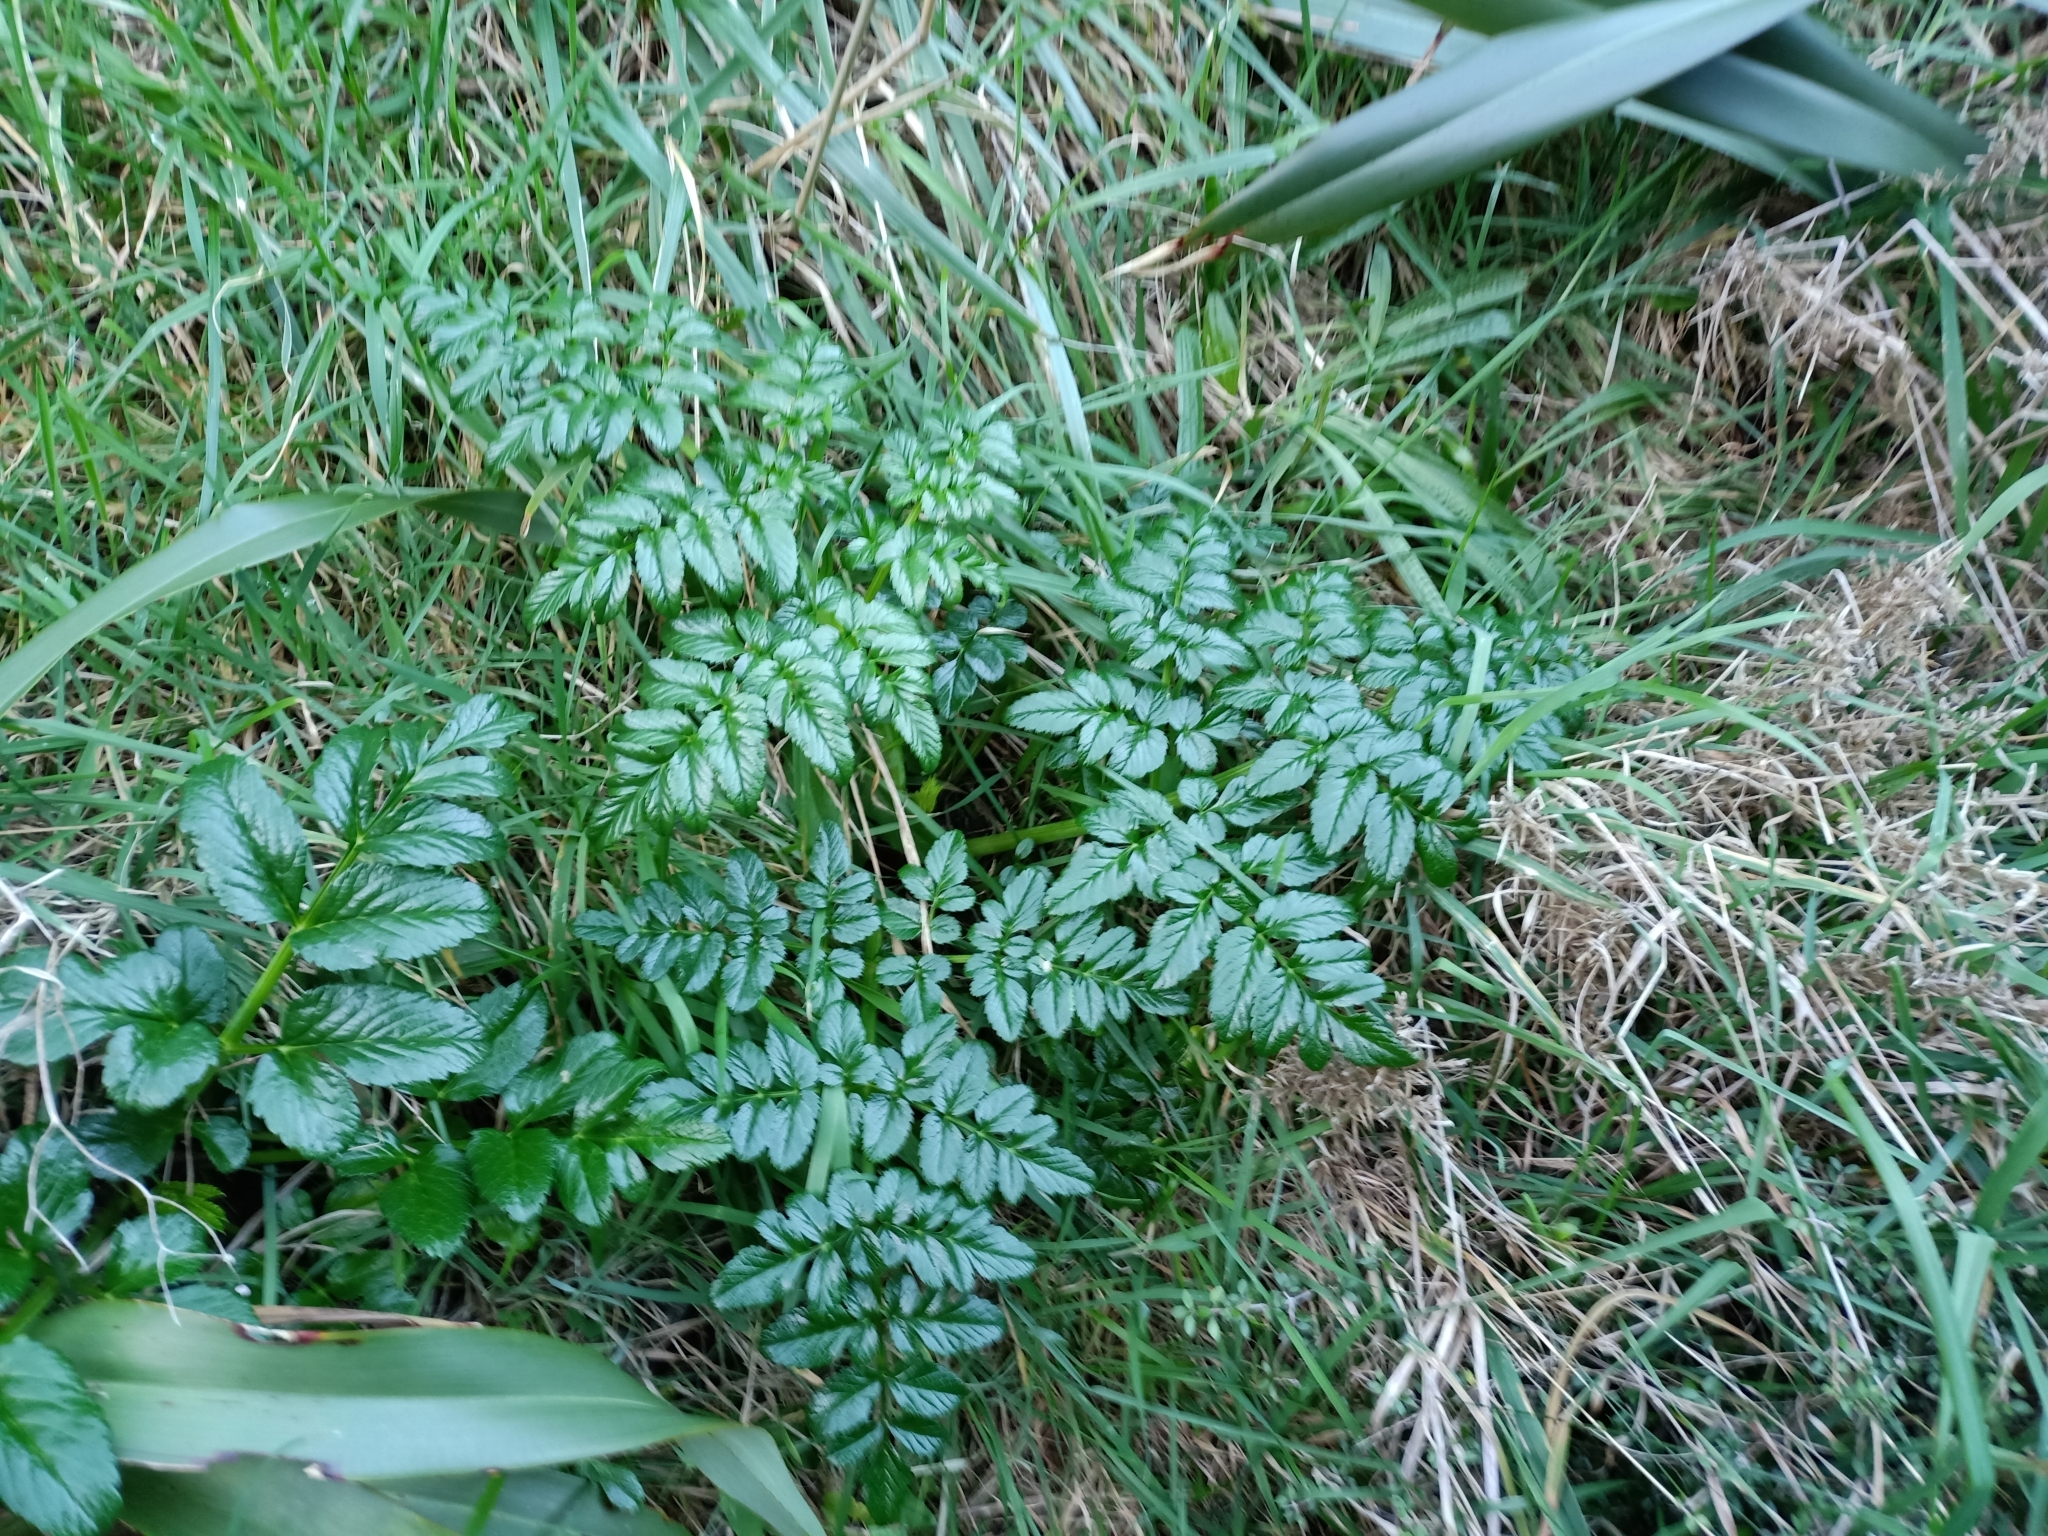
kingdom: Plantae
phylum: Tracheophyta
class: Magnoliopsida
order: Apiales
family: Apiaceae
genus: Angelica
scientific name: Angelica pachycarpa
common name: Portuguese angelica
